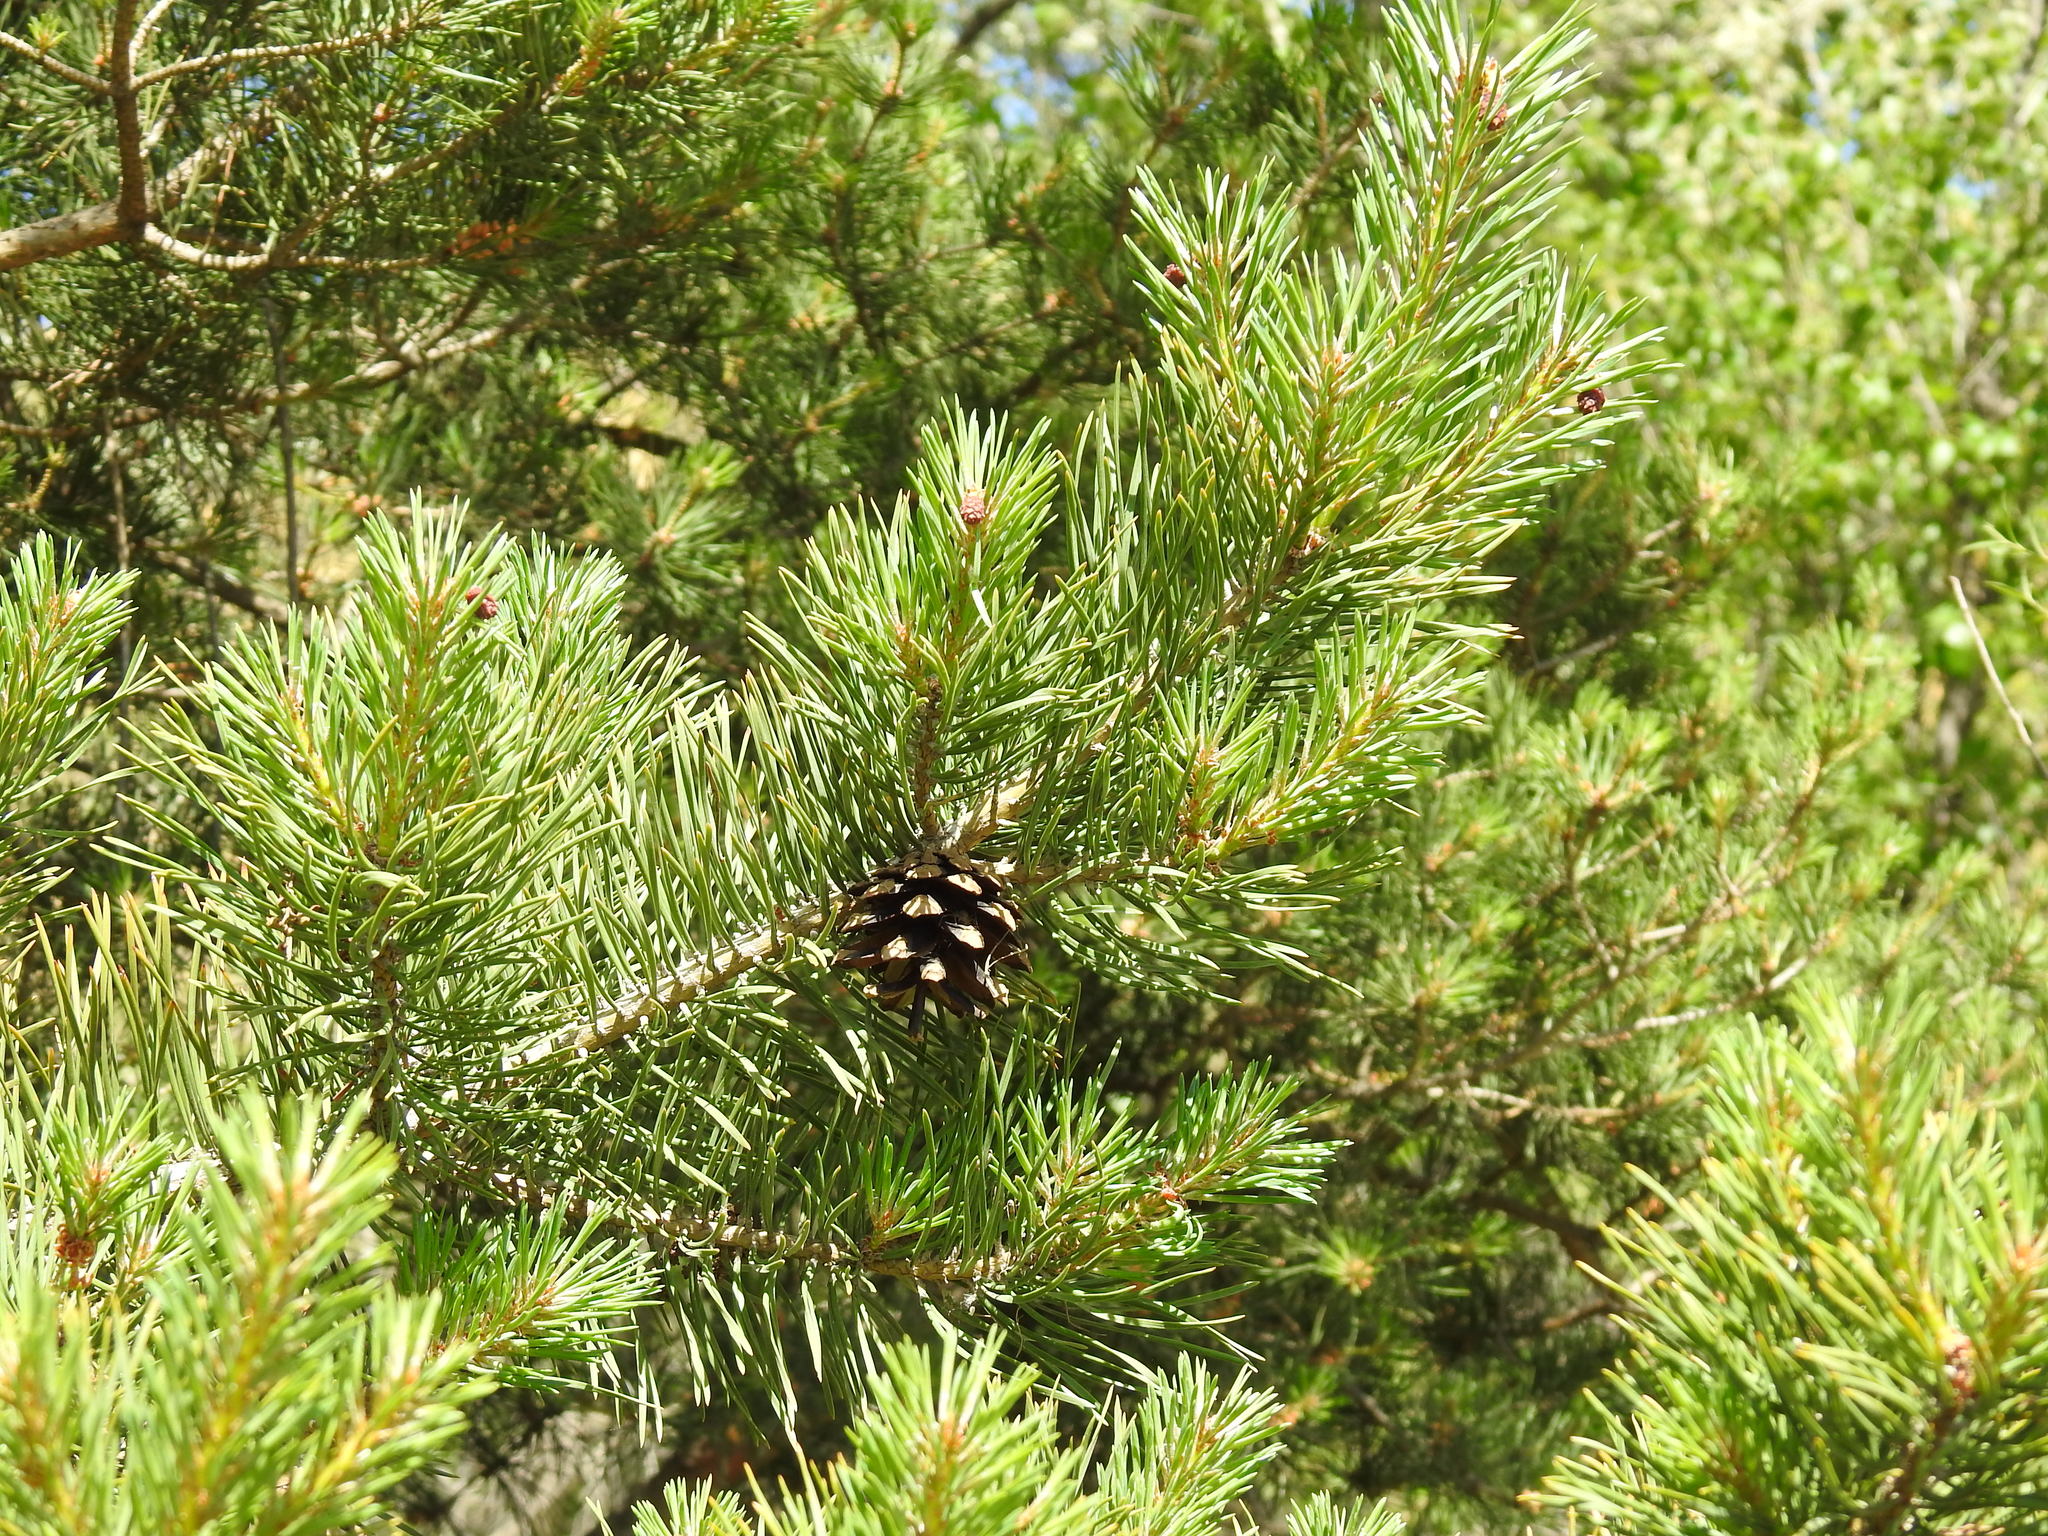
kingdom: Plantae
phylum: Tracheophyta
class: Pinopsida
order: Pinales
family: Pinaceae
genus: Pinus
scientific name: Pinus sylvestris
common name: Scots pine
